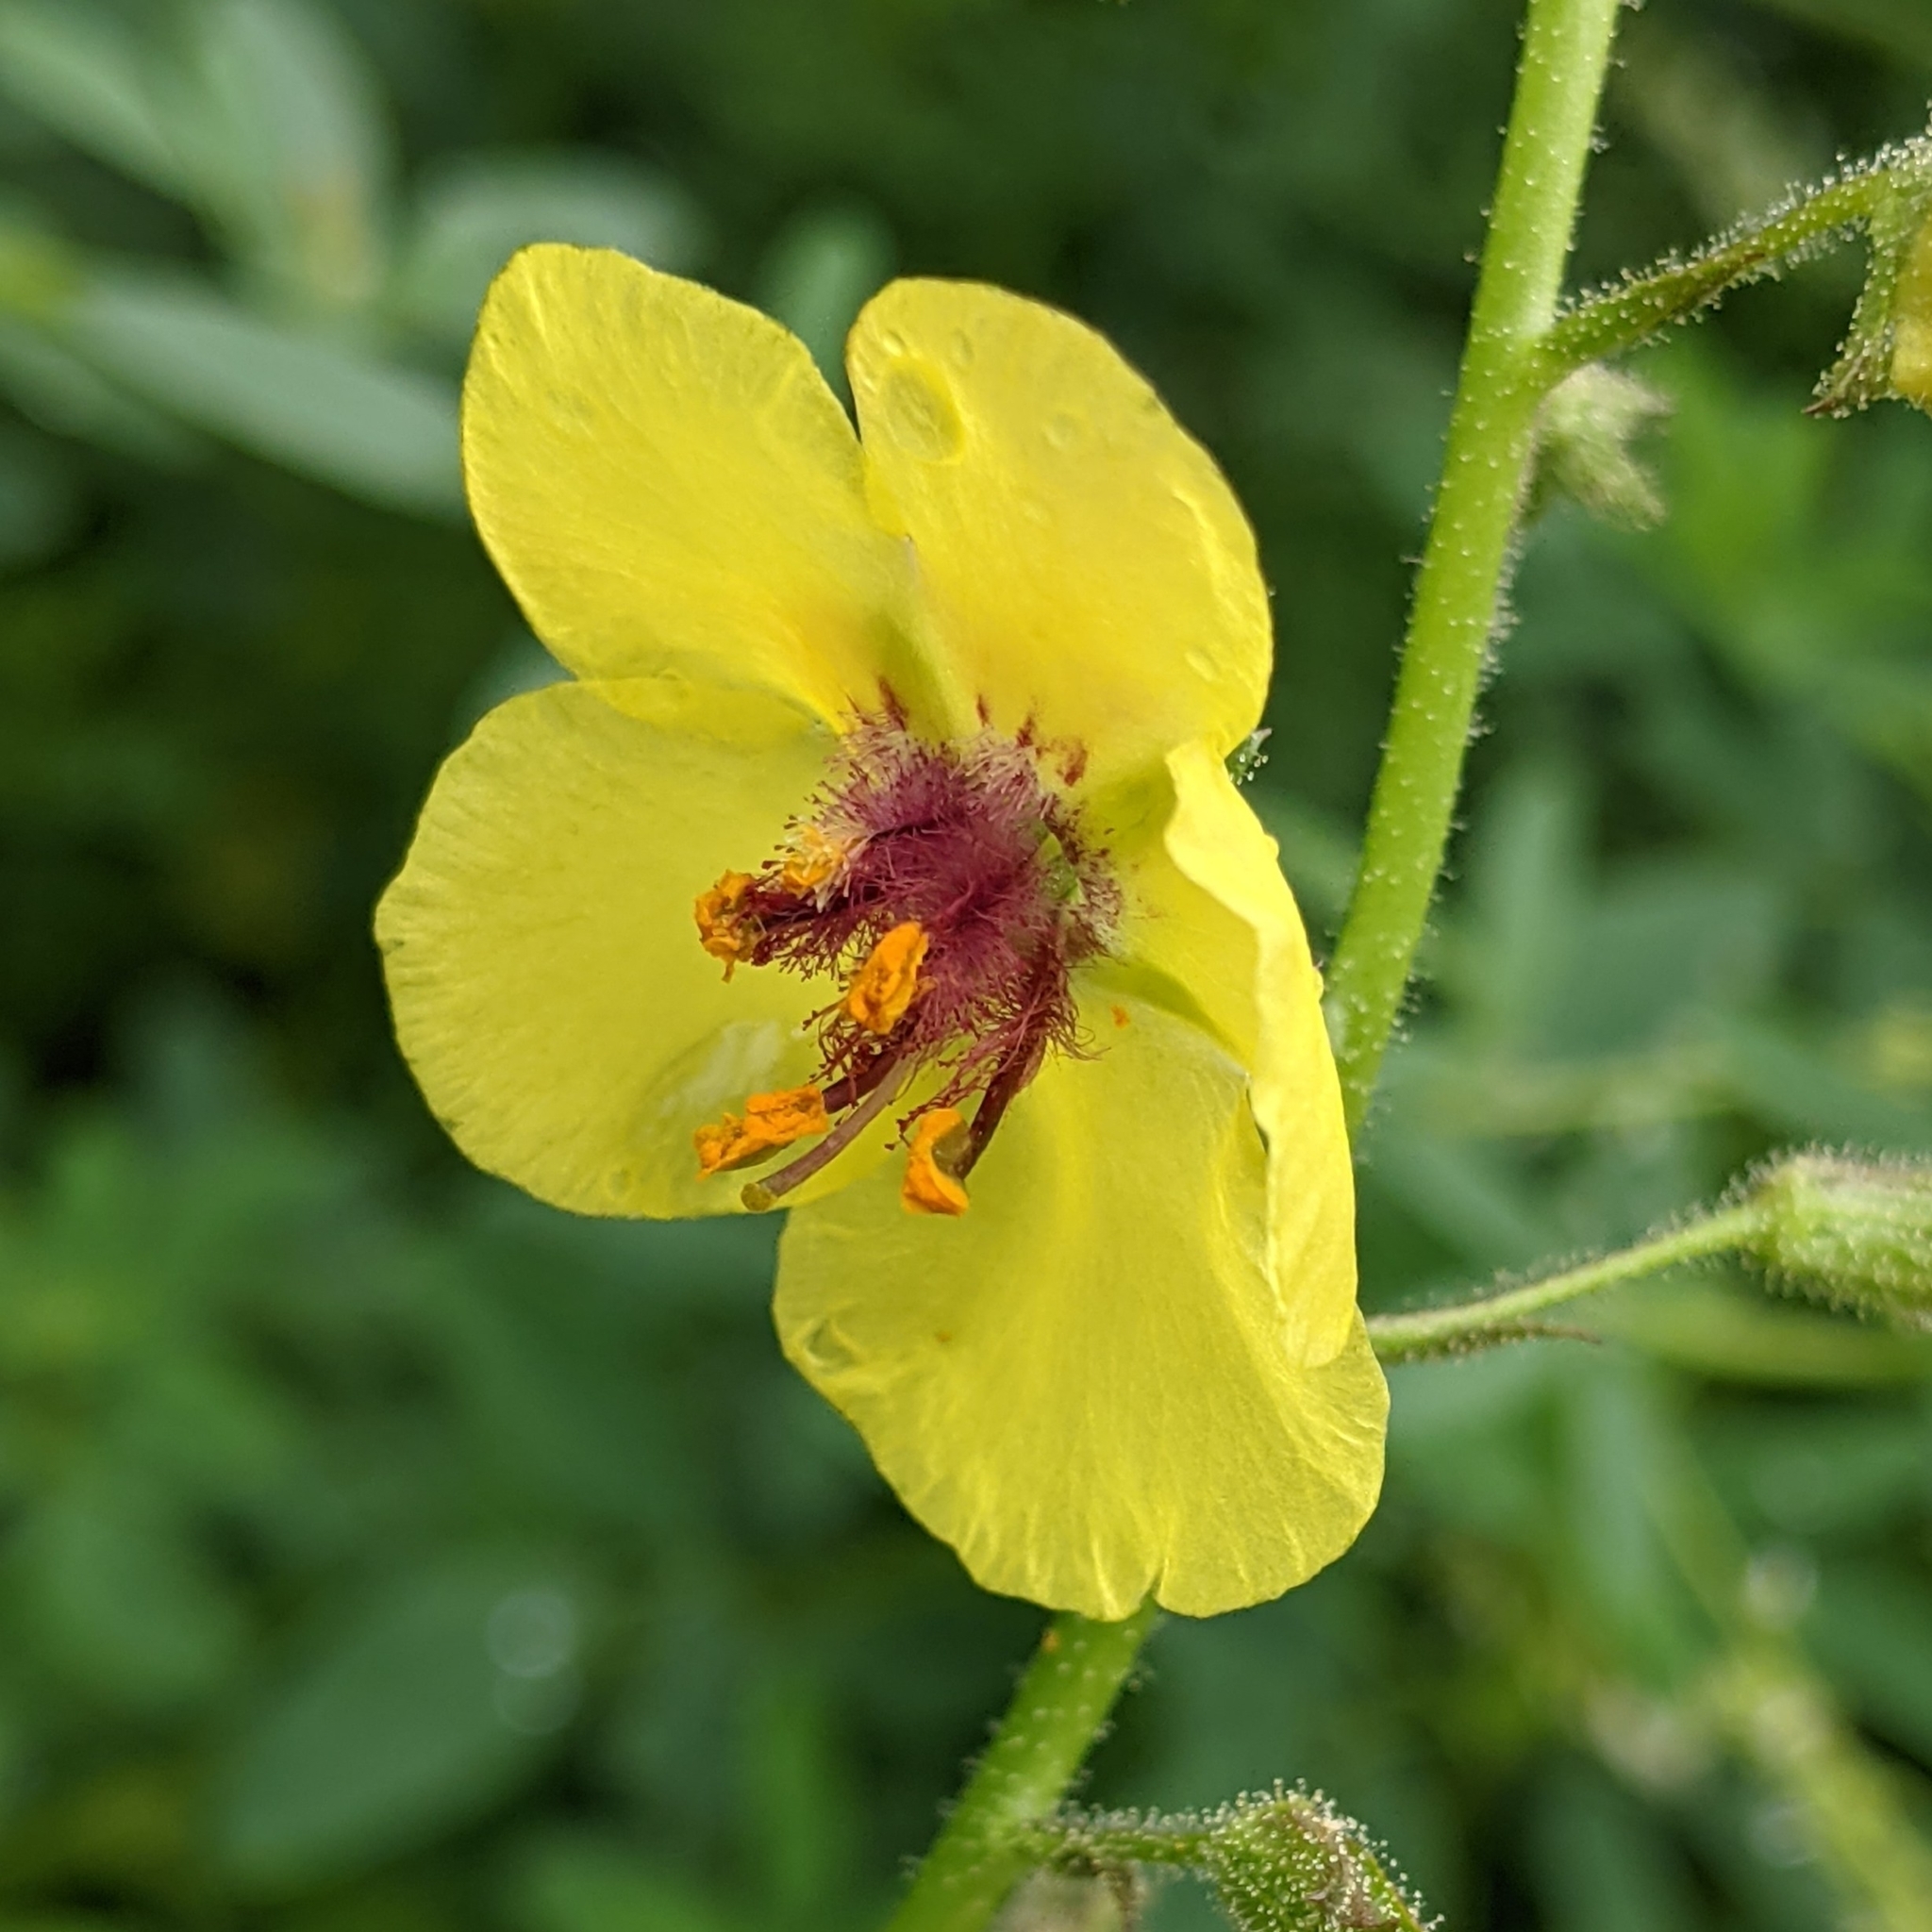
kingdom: Plantae
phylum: Tracheophyta
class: Magnoliopsida
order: Lamiales
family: Scrophulariaceae
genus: Verbascum
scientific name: Verbascum blattaria
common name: Moth mullein
